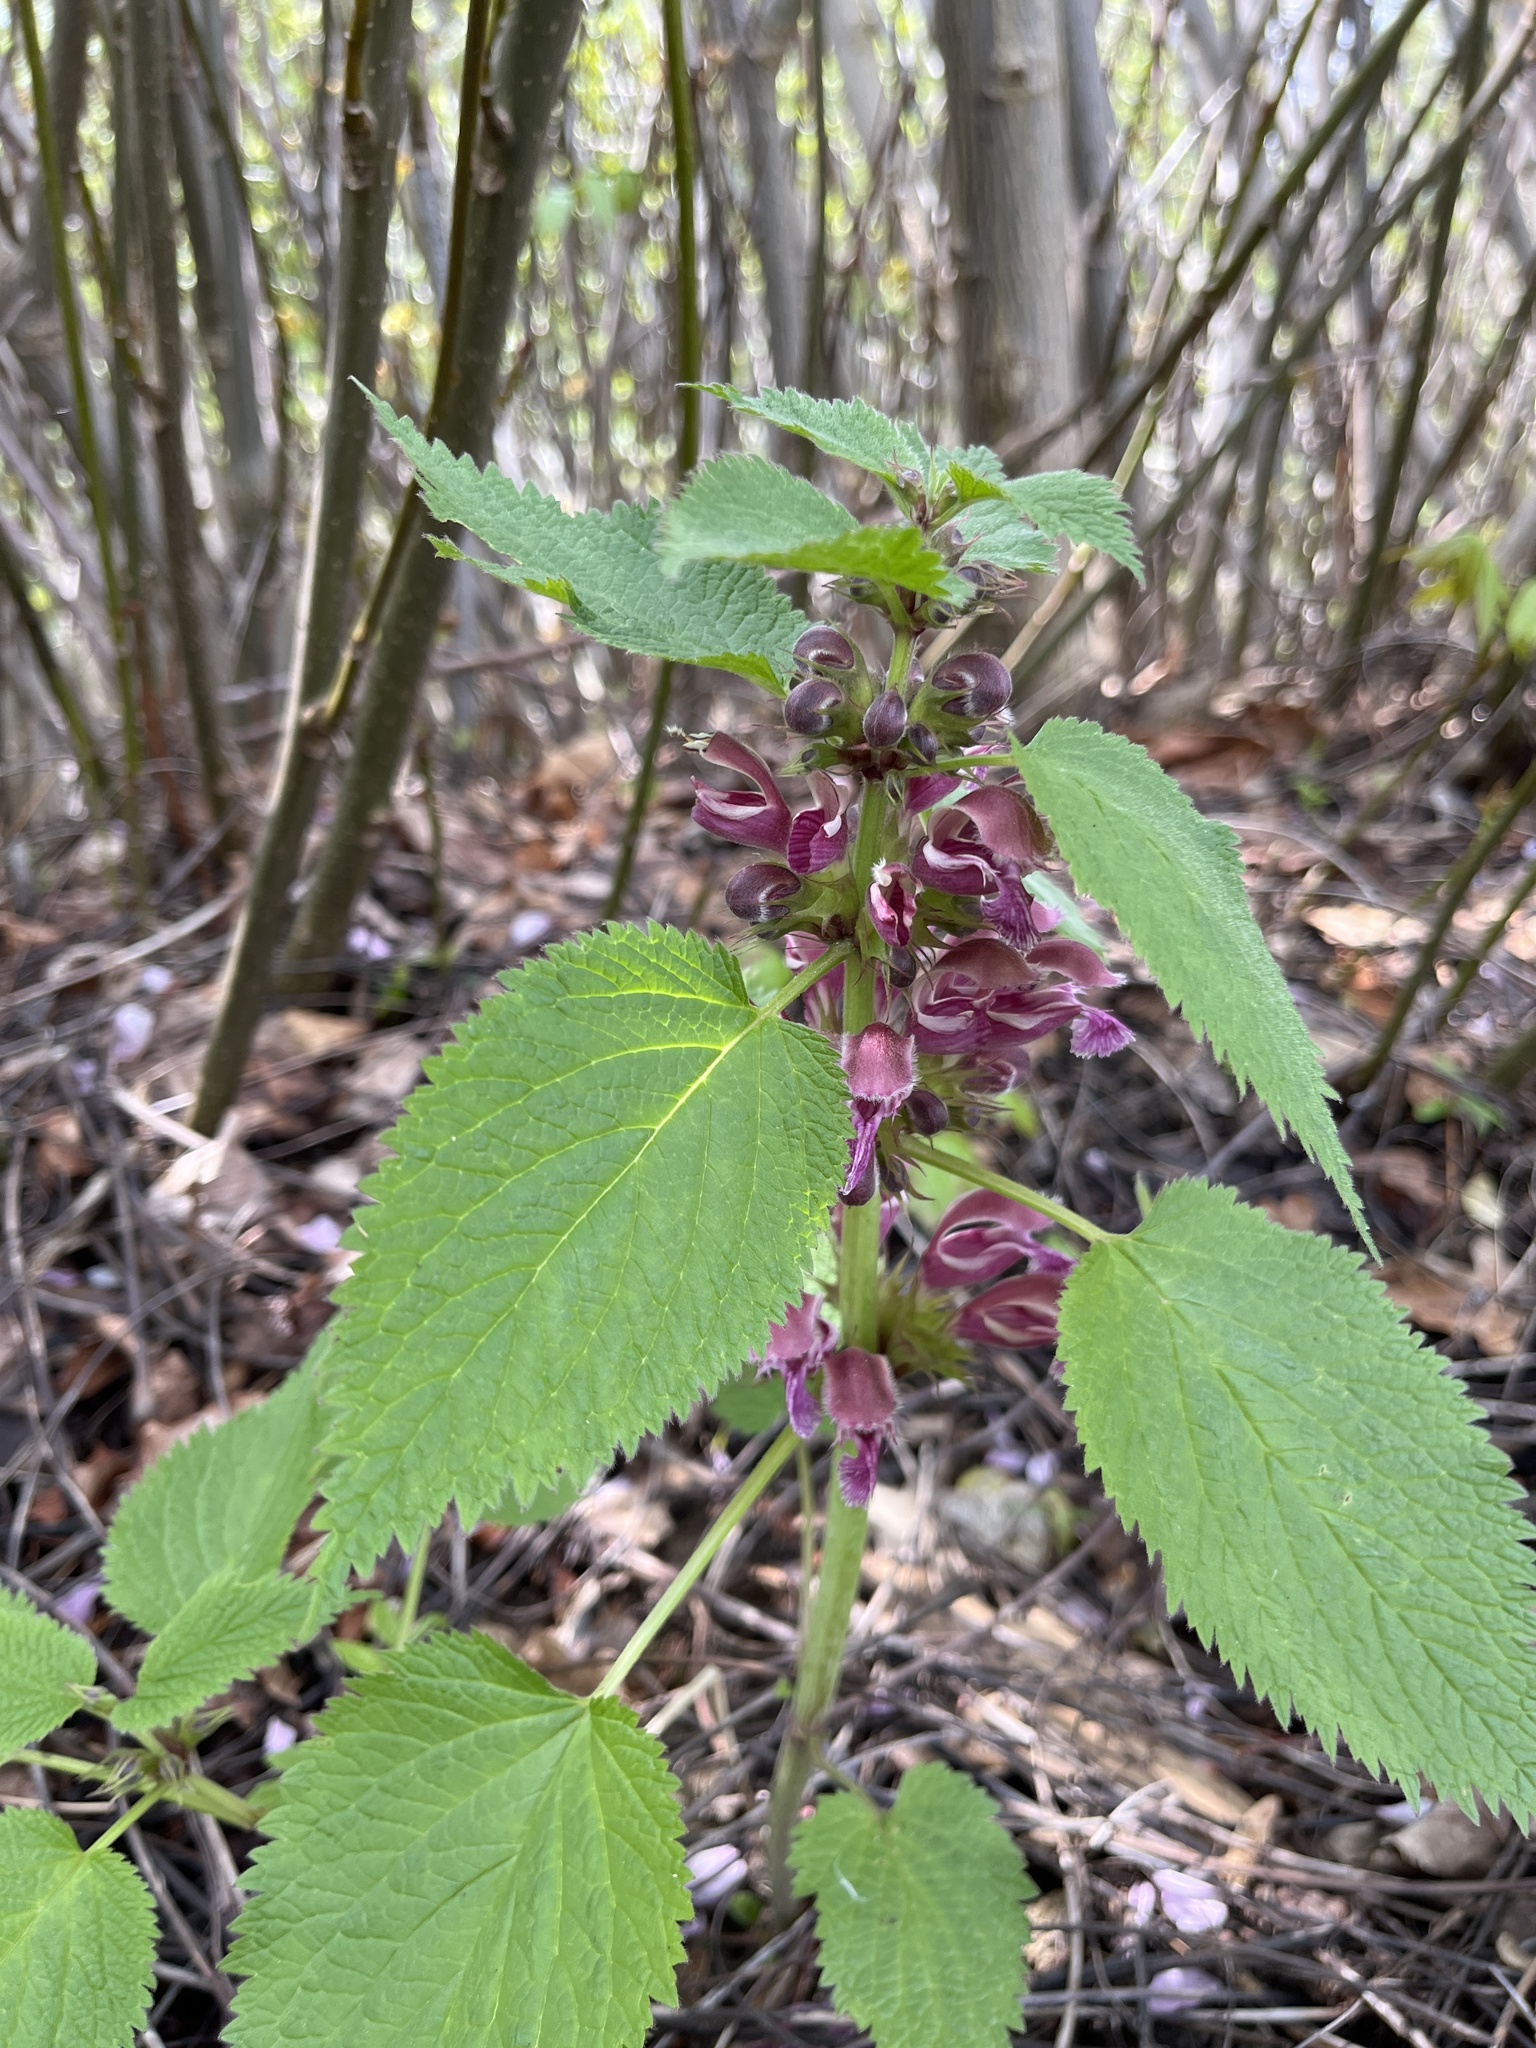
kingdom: Plantae
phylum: Tracheophyta
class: Magnoliopsida
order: Lamiales
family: Lamiaceae
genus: Lamium
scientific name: Lamium orvala
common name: Balm-leaved archangel
